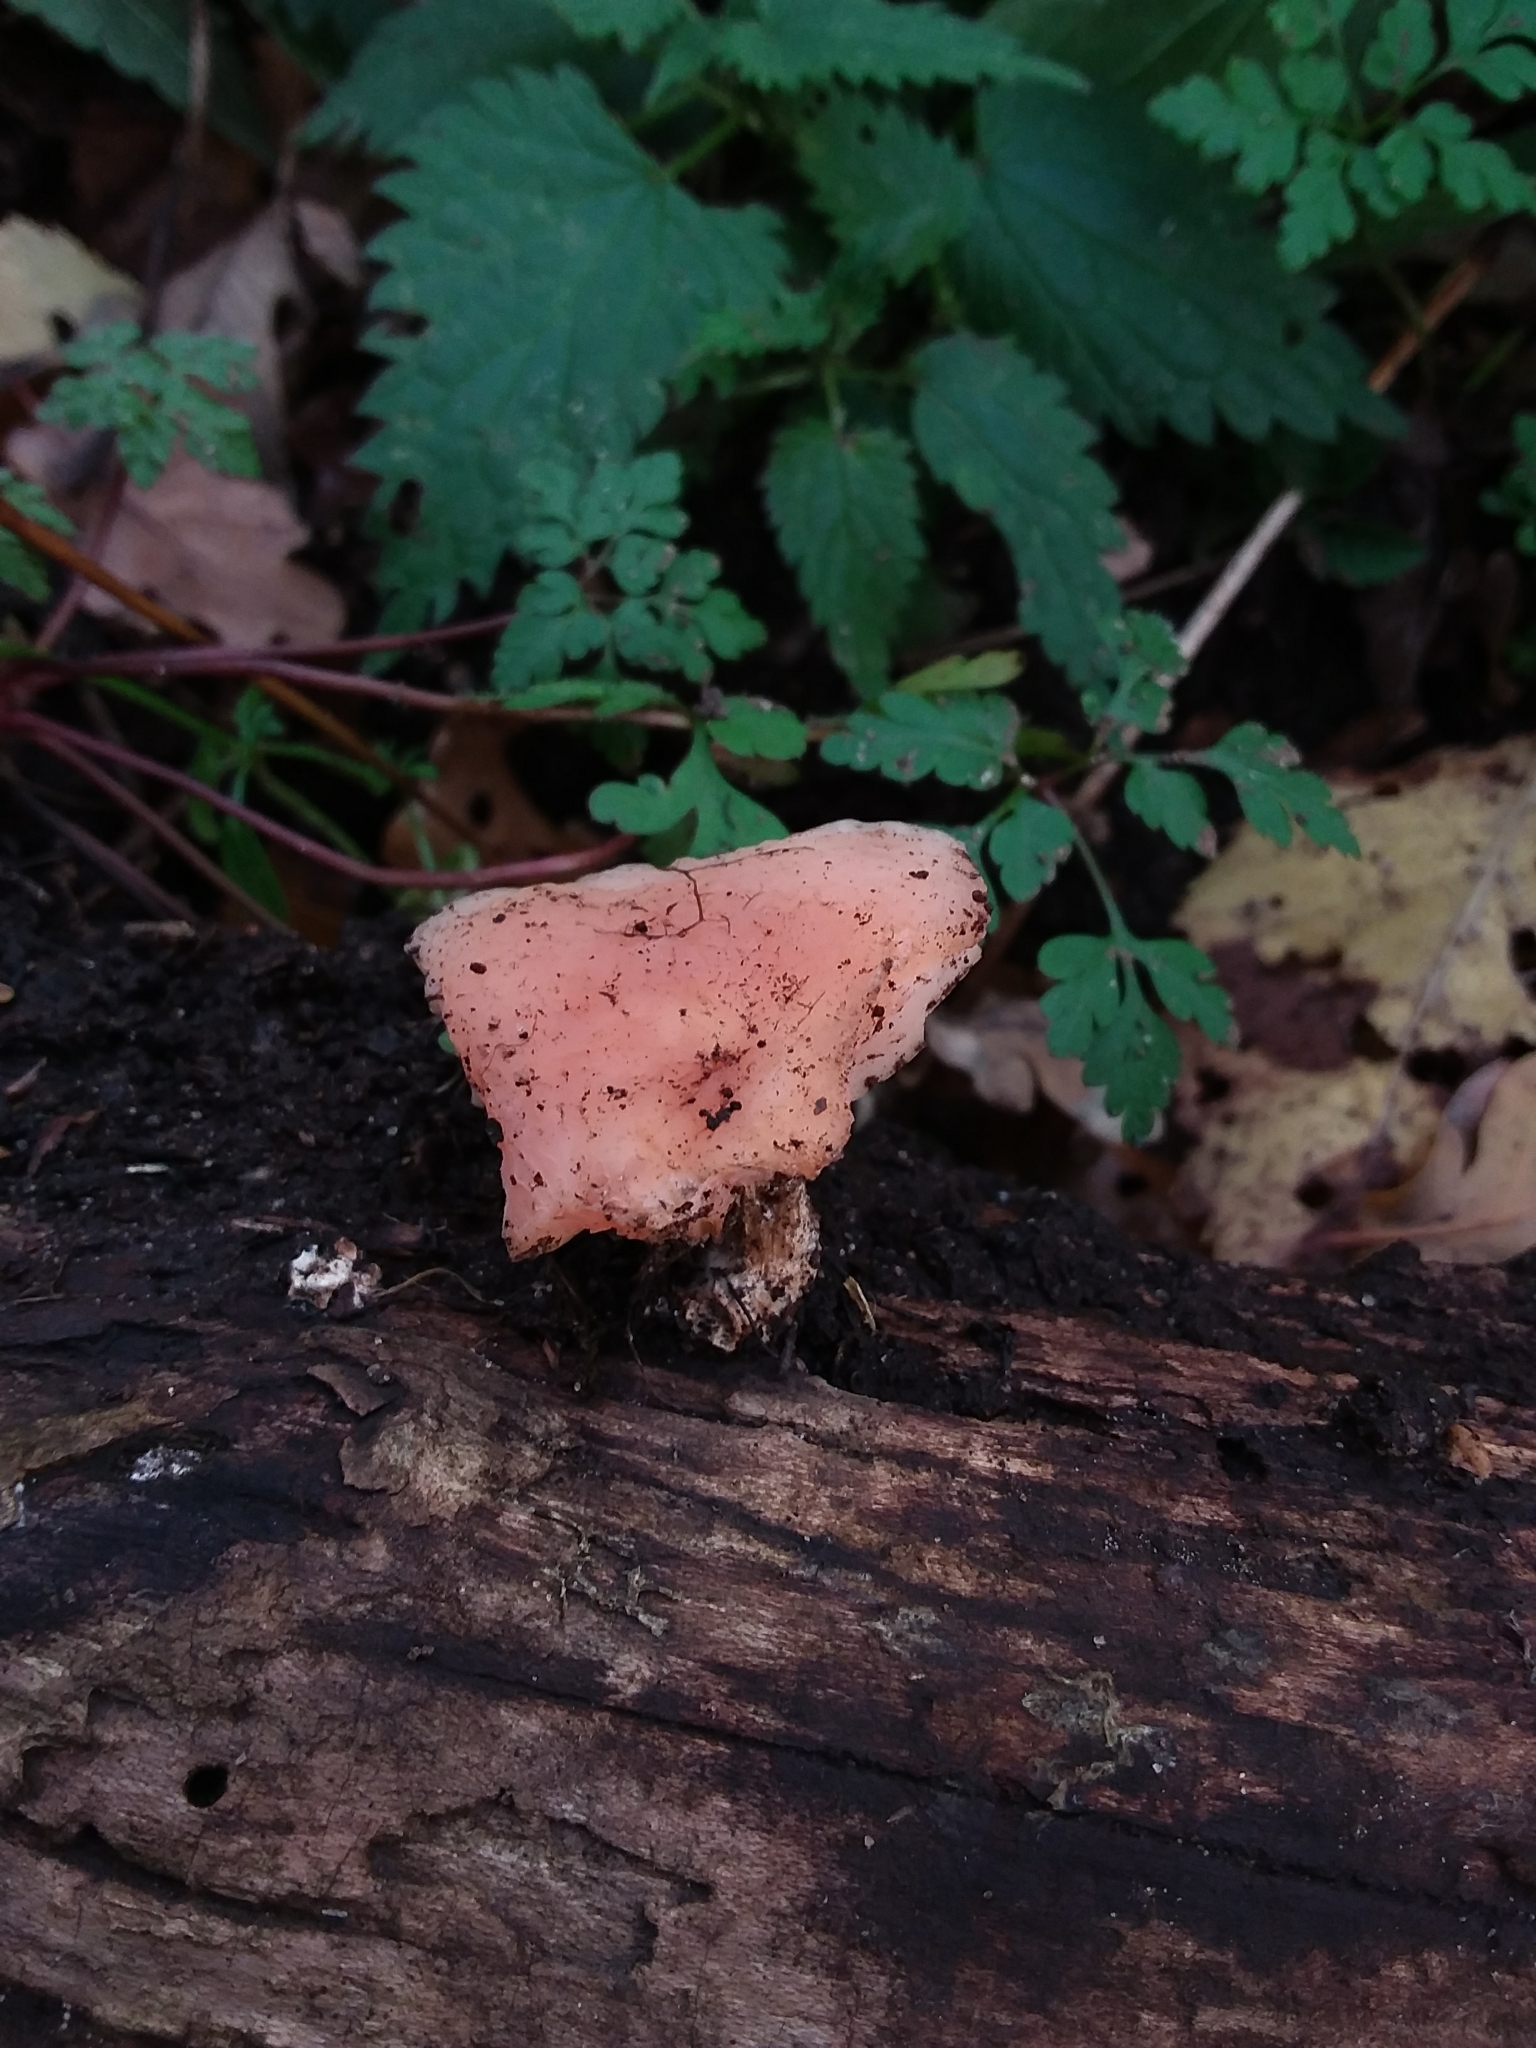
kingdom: Fungi
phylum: Basidiomycota
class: Agaricomycetes
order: Agaricales
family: Physalacriaceae
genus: Rhodotus
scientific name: Rhodotus palmatus
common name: Wrinkled peach
